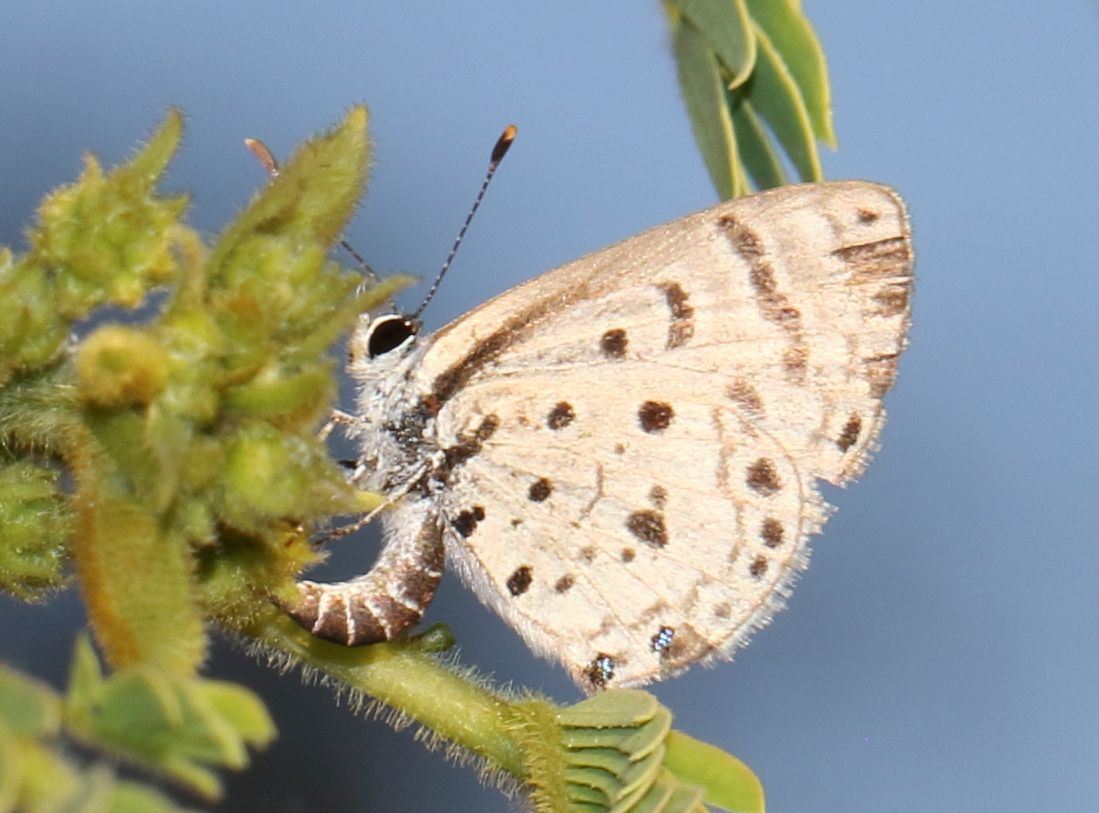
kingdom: Animalia
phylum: Arthropoda
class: Insecta
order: Lepidoptera
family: Lycaenidae
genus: Azanus
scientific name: Azanus moriqua
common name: Thorn-tree babul blue
